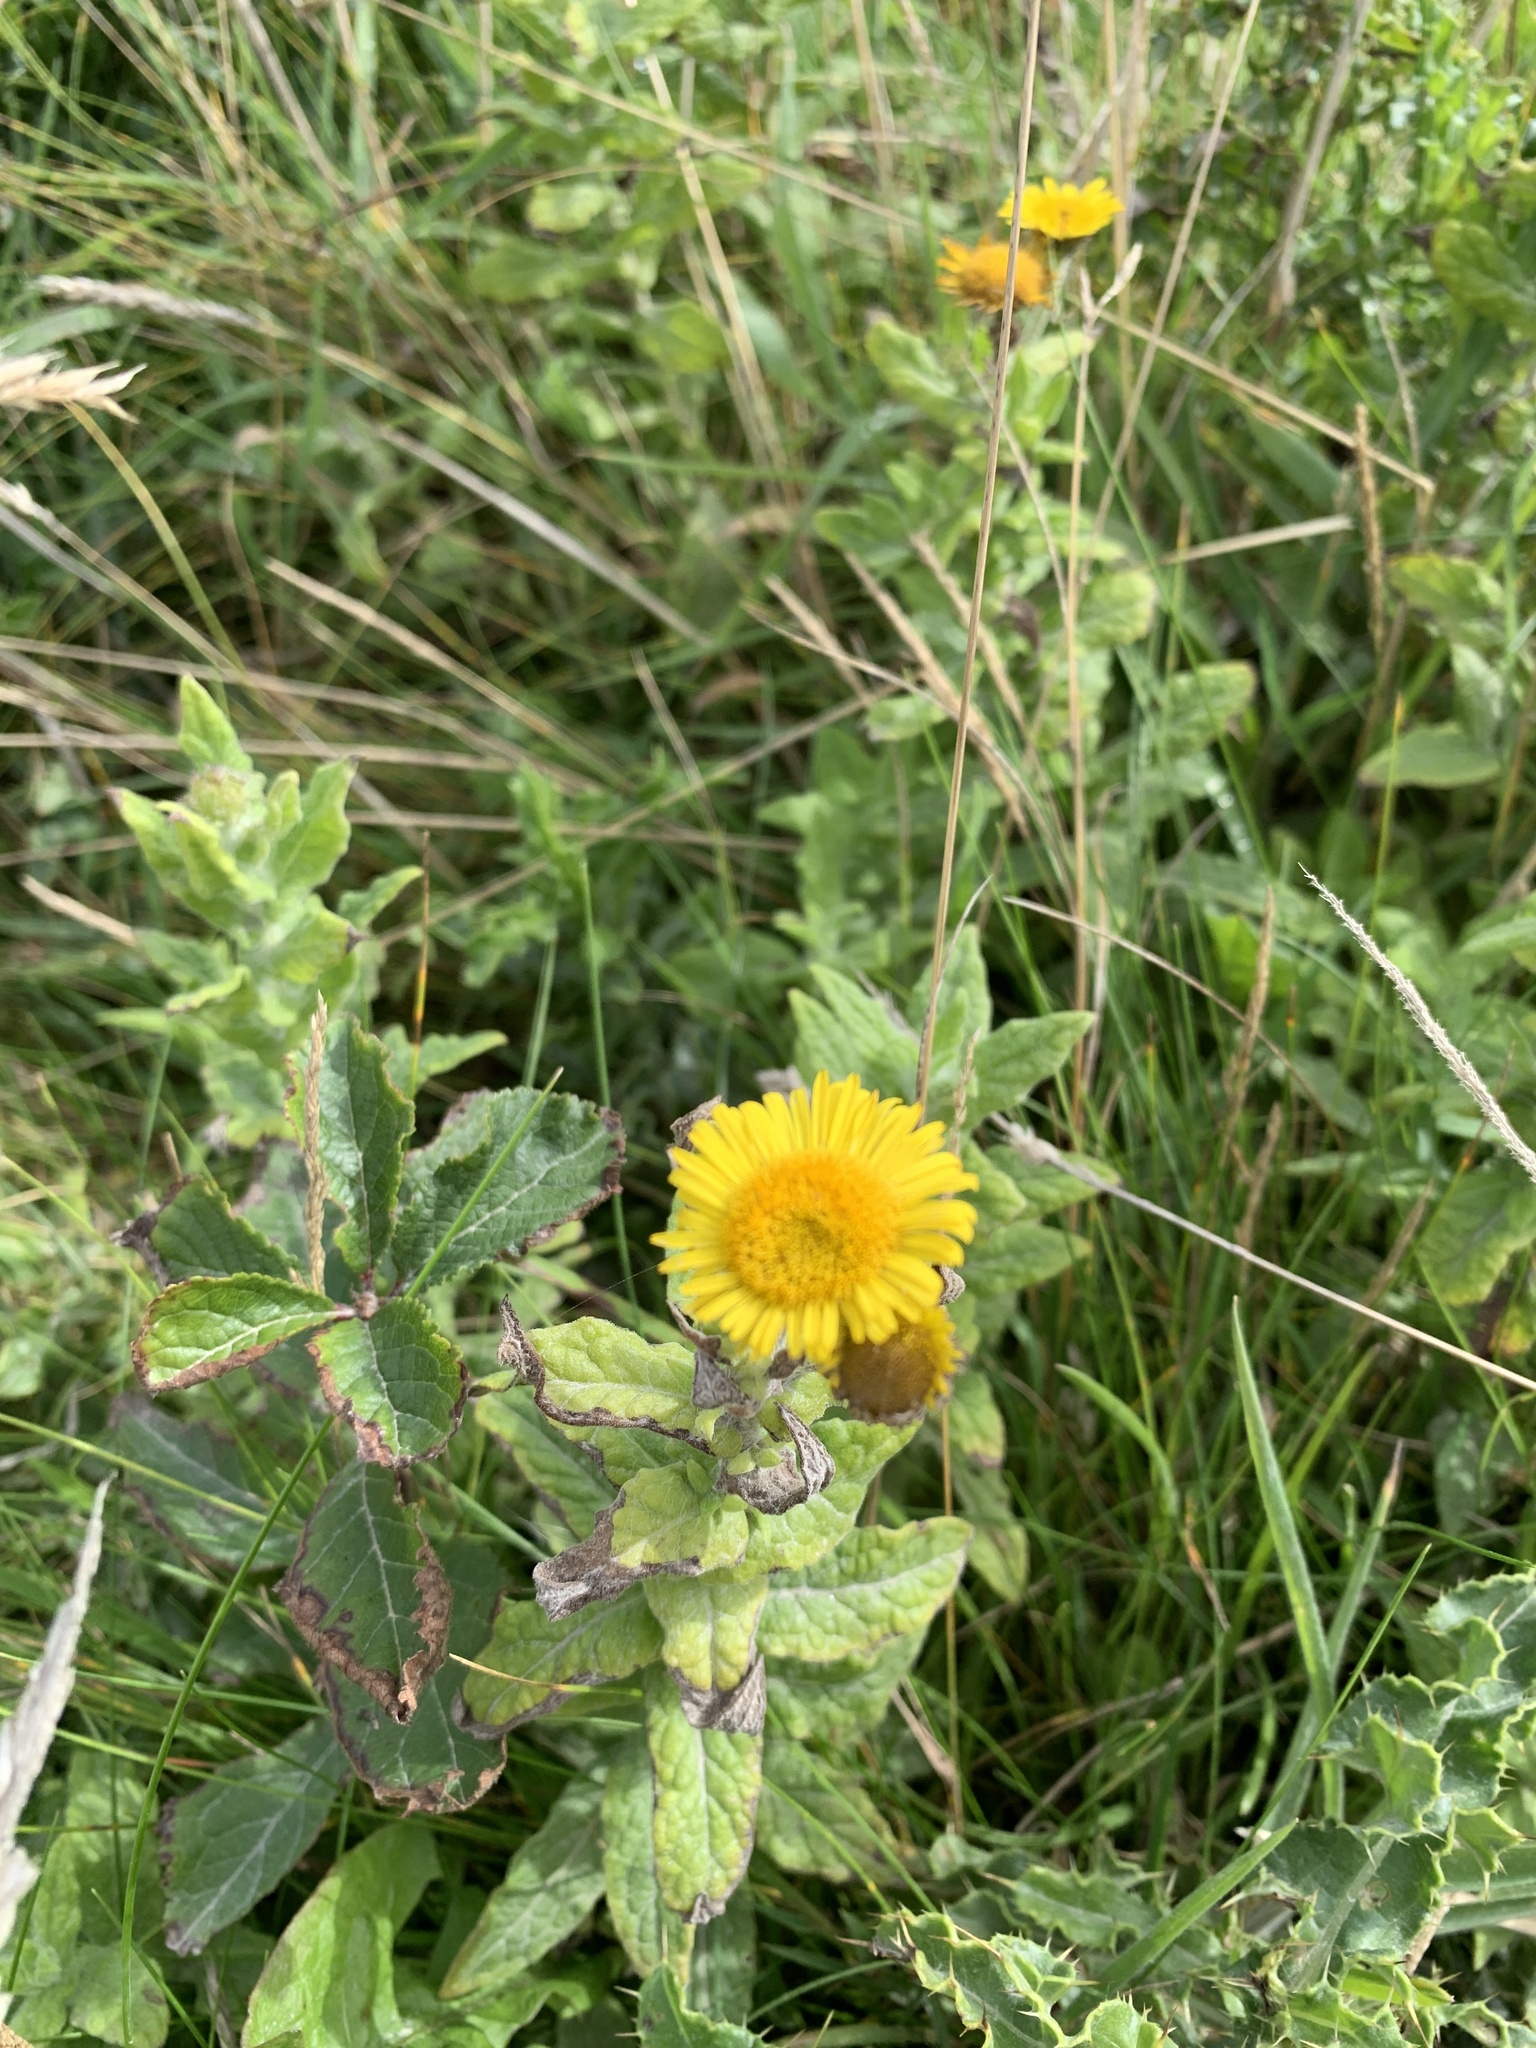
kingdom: Plantae
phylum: Tracheophyta
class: Magnoliopsida
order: Asterales
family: Asteraceae
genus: Pulicaria
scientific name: Pulicaria dysenterica
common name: Common fleabane
